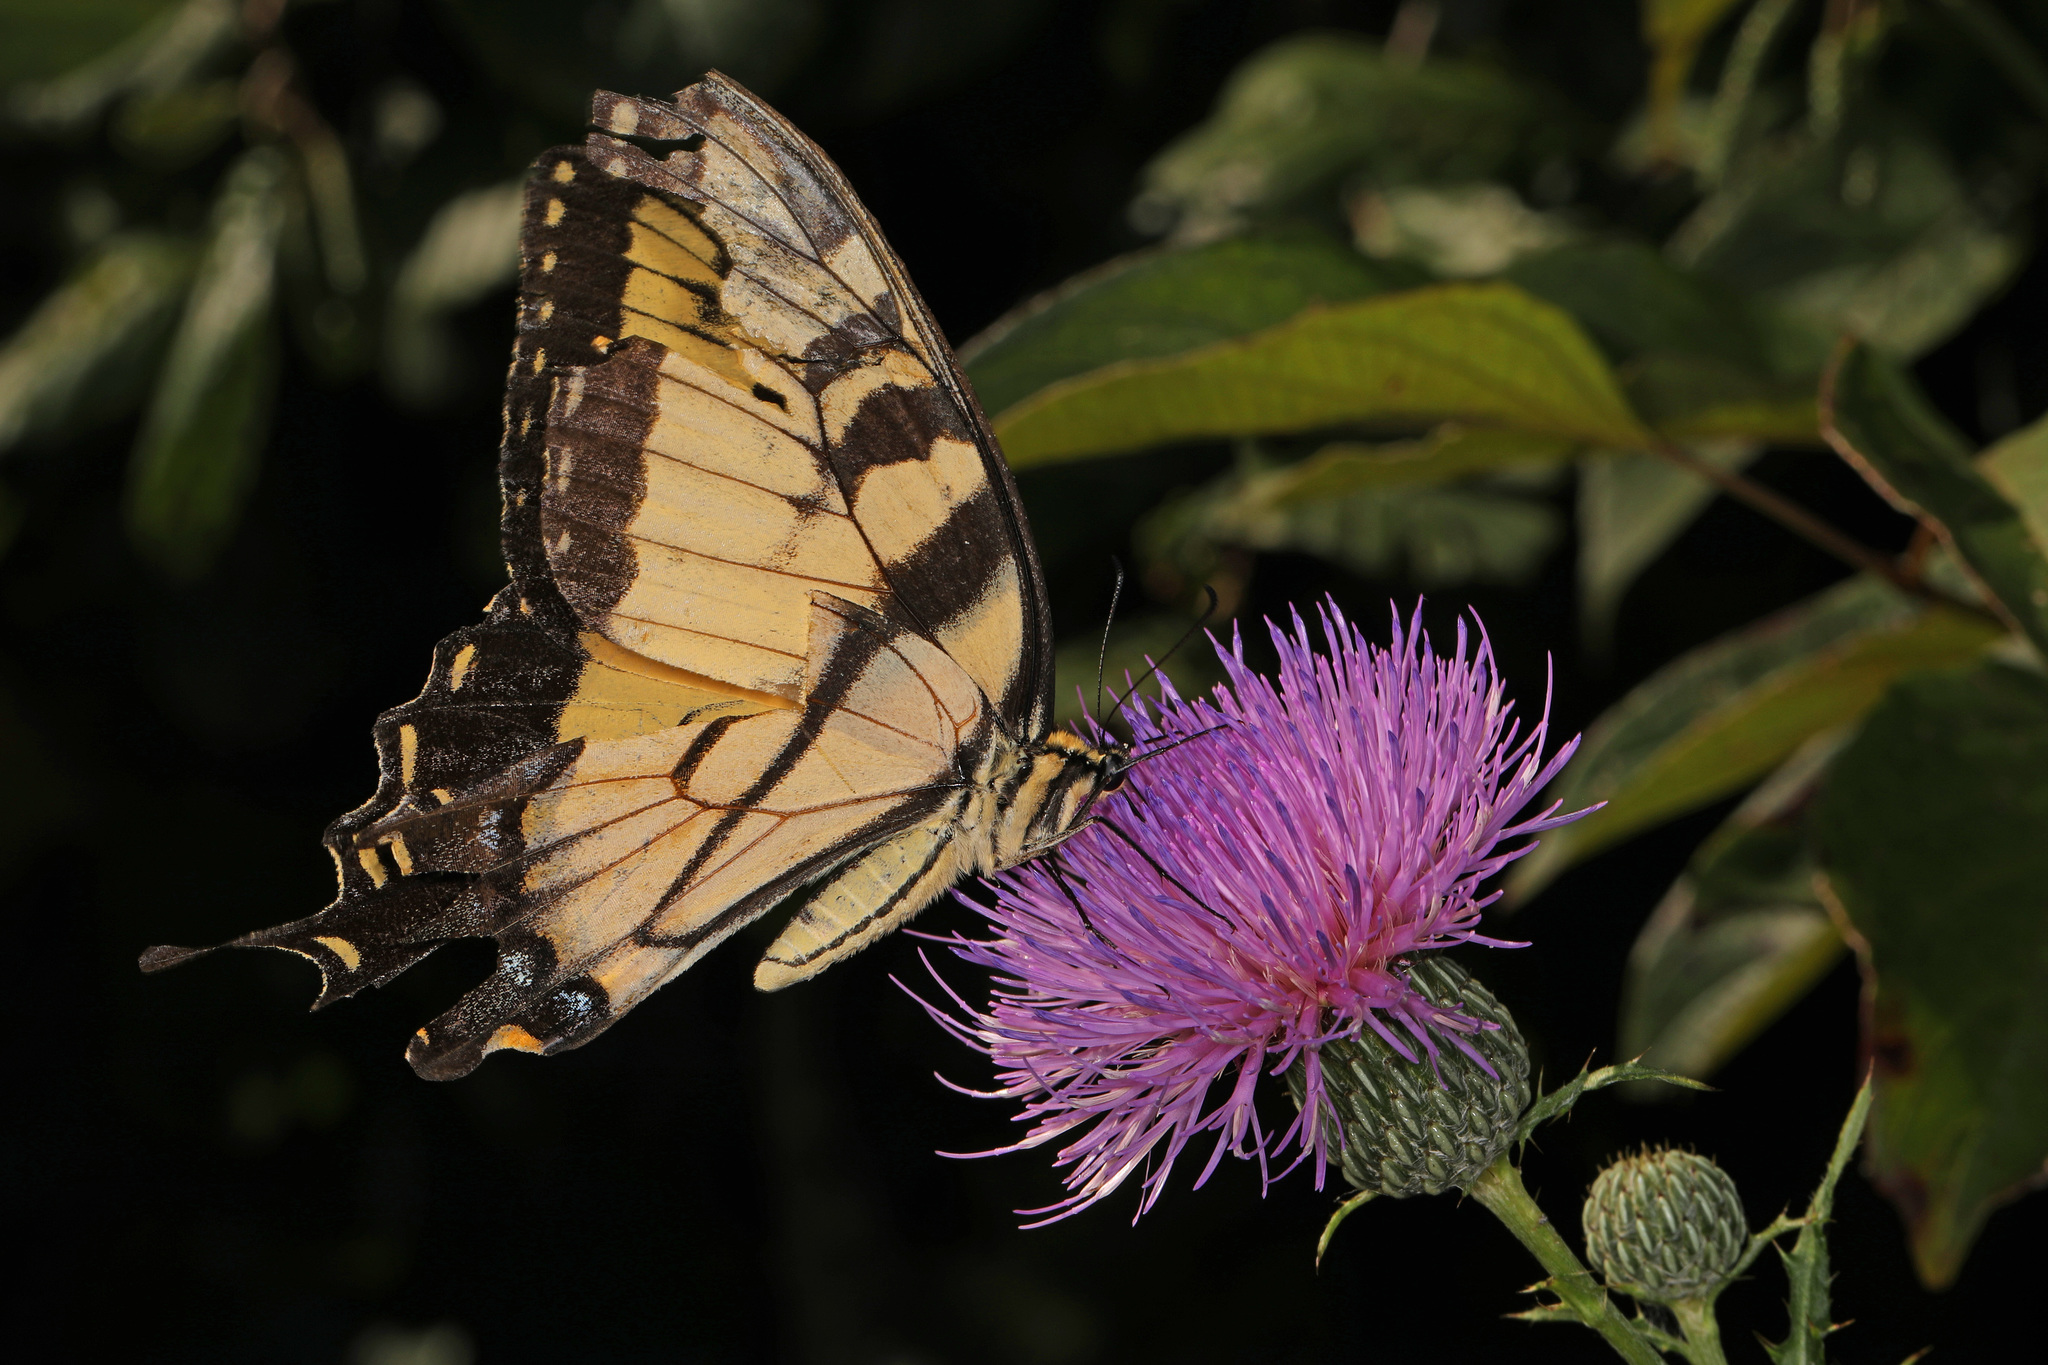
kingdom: Animalia
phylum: Arthropoda
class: Insecta
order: Lepidoptera
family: Papilionidae
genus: Papilio
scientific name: Papilio glaucus
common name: Tiger swallowtail
